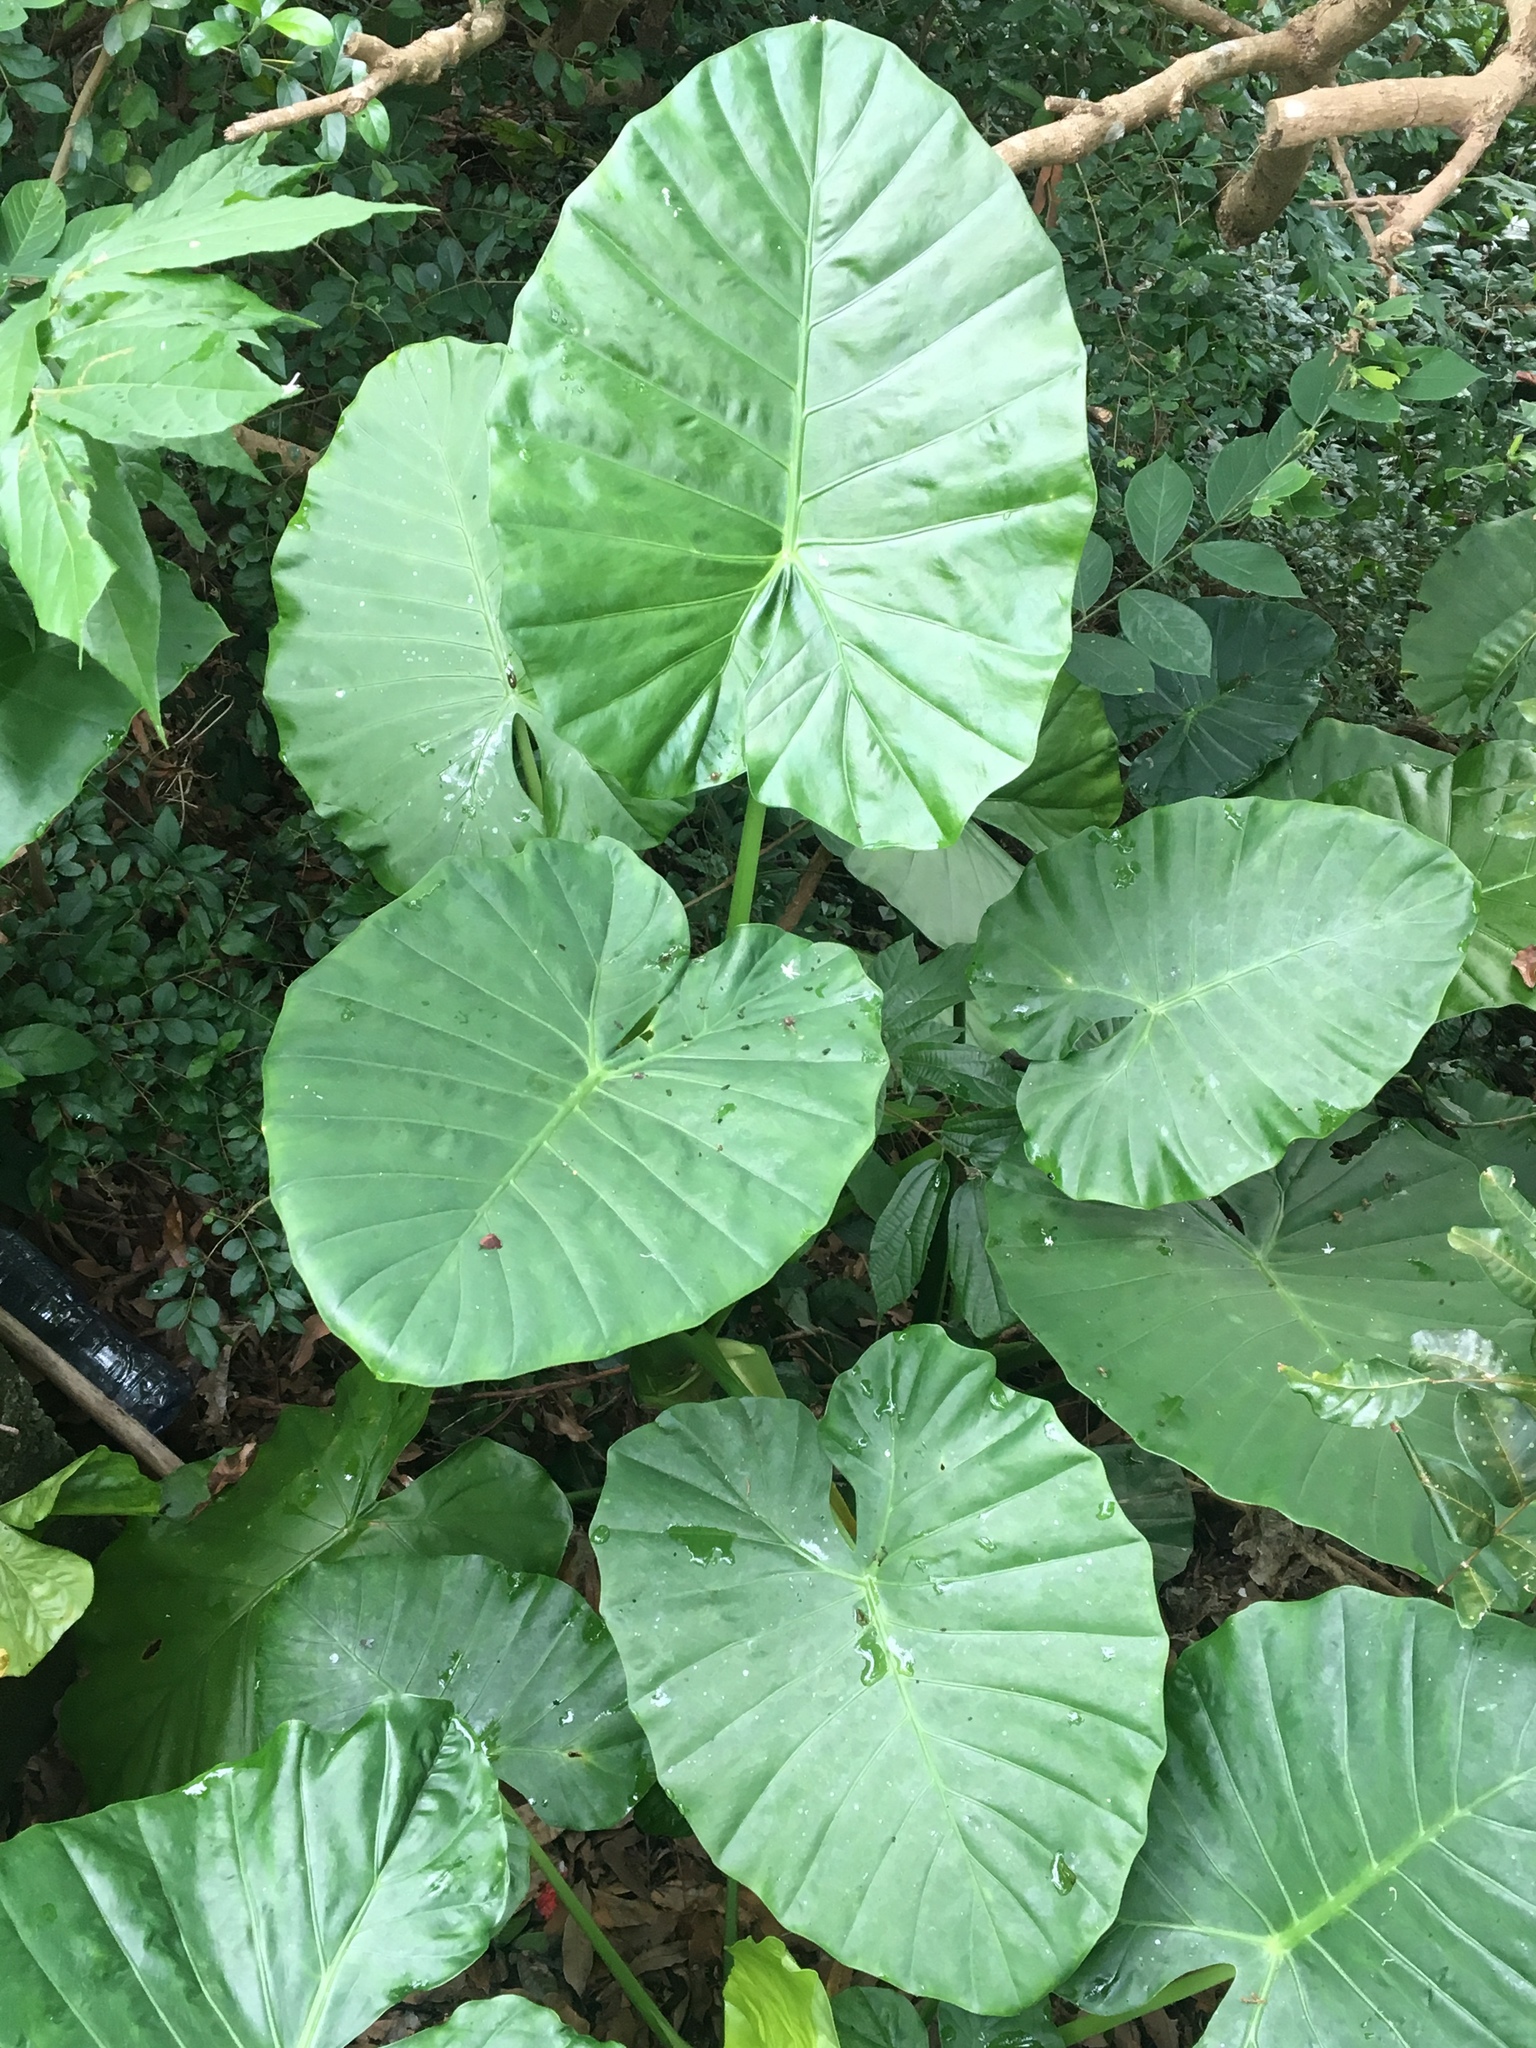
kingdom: Plantae
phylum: Tracheophyta
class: Liliopsida
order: Alismatales
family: Araceae
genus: Alocasia
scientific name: Alocasia macrorrhizos
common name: Giant taro
